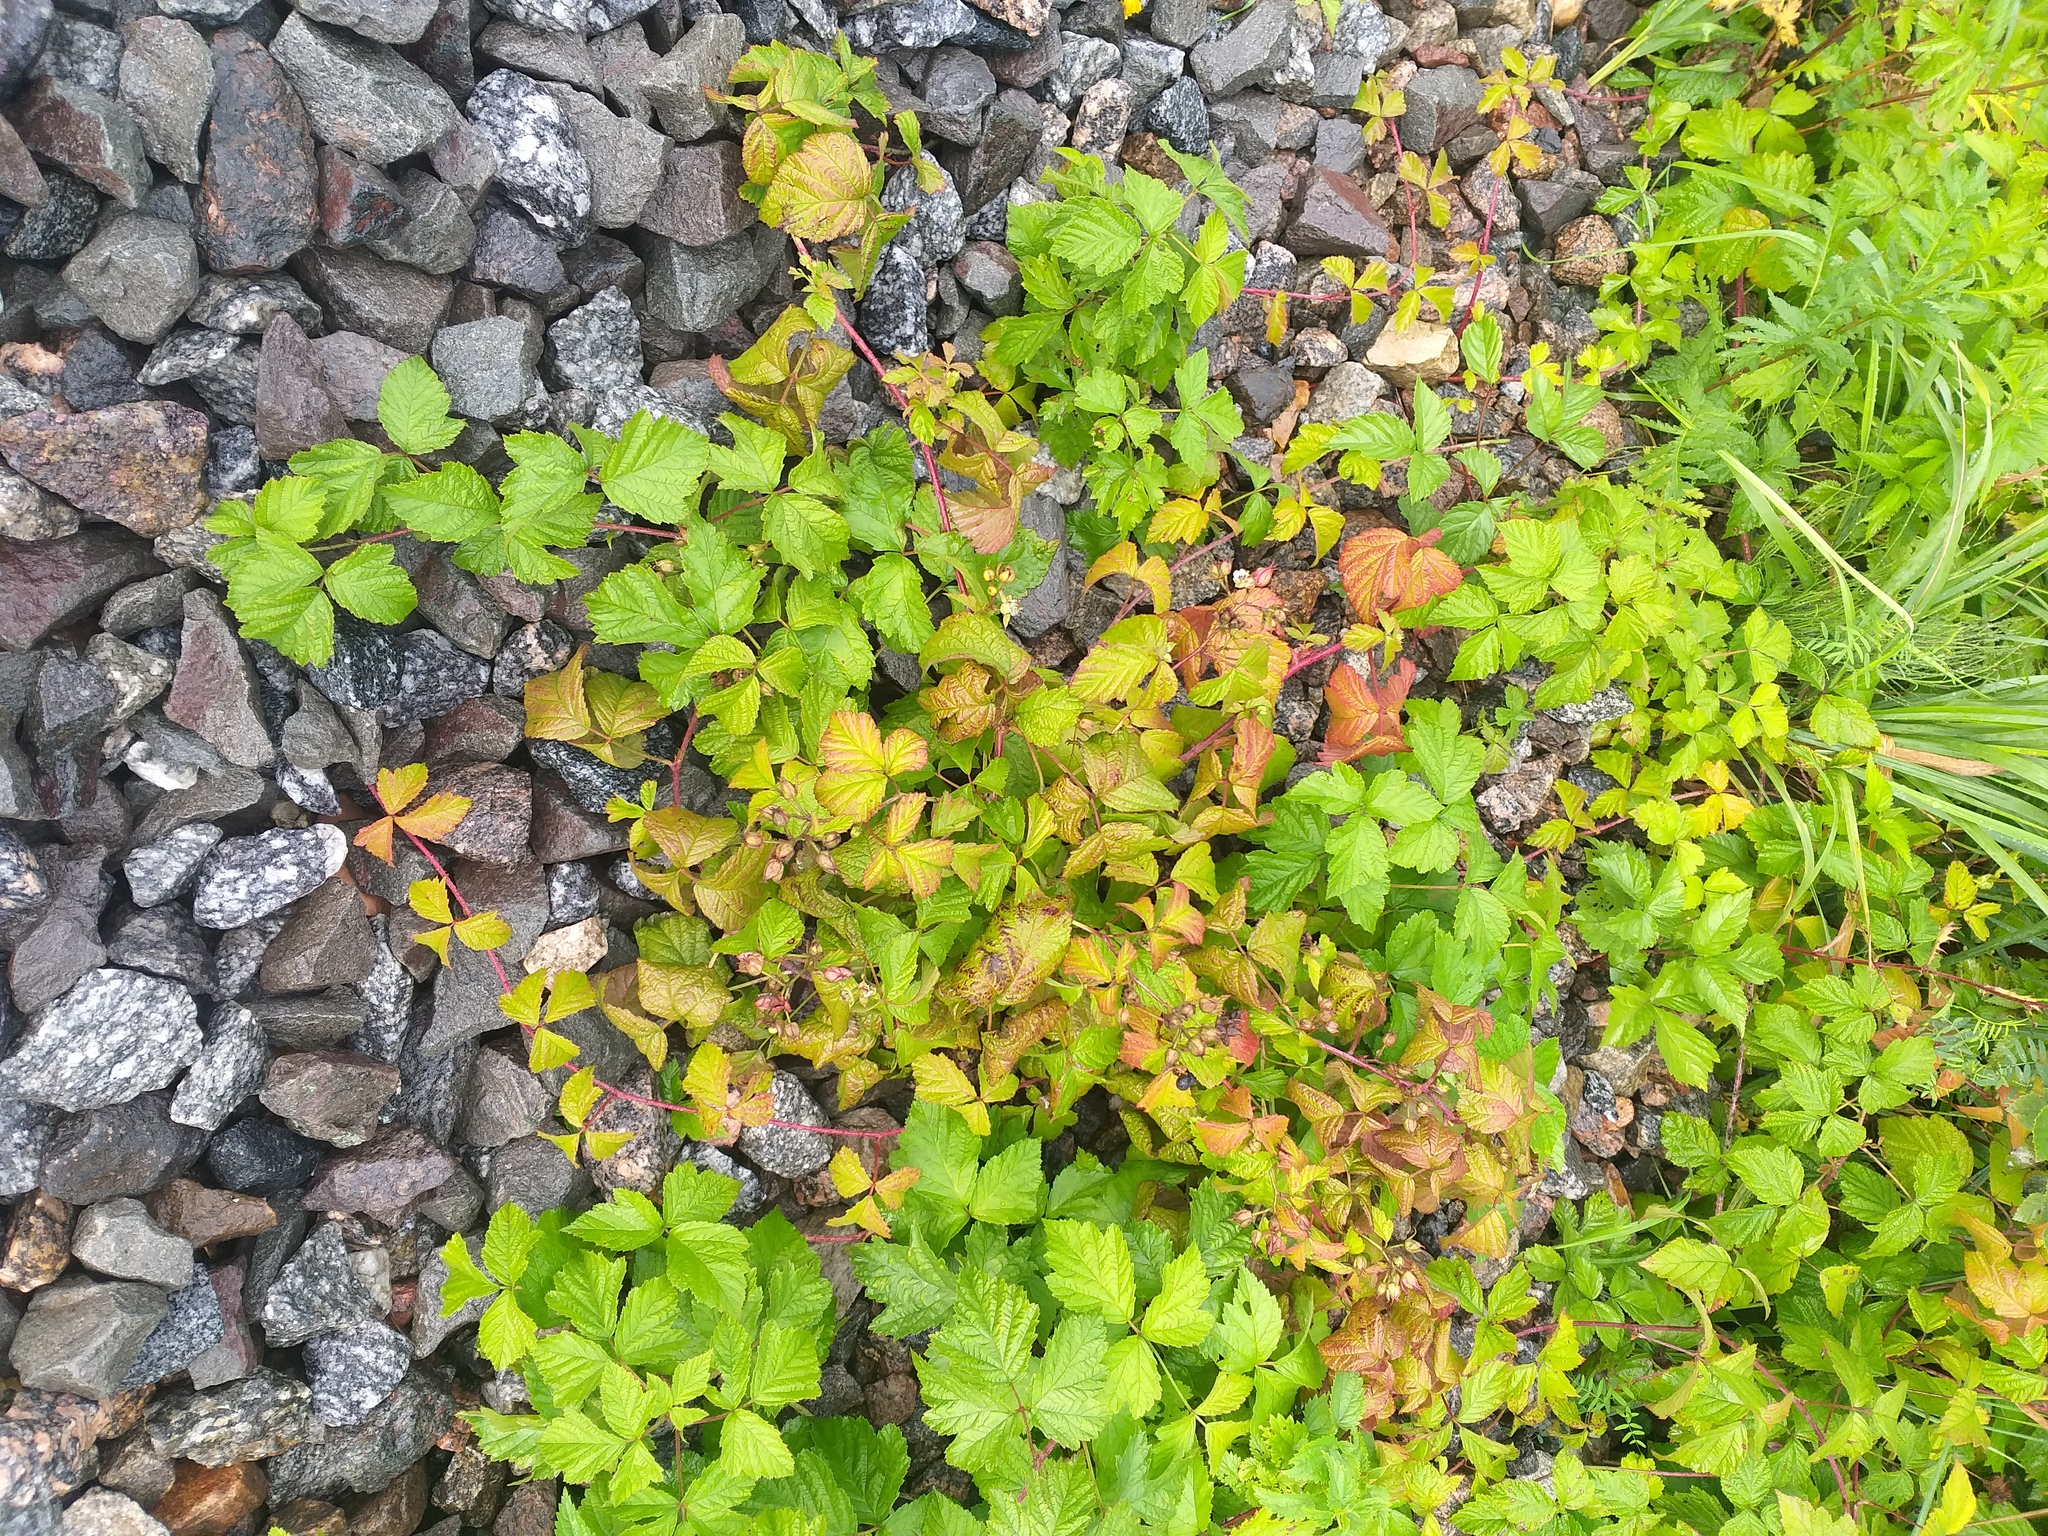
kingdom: Plantae
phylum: Tracheophyta
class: Magnoliopsida
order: Rosales
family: Rosaceae
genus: Rubus
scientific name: Rubus caesius
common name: Dewberry
